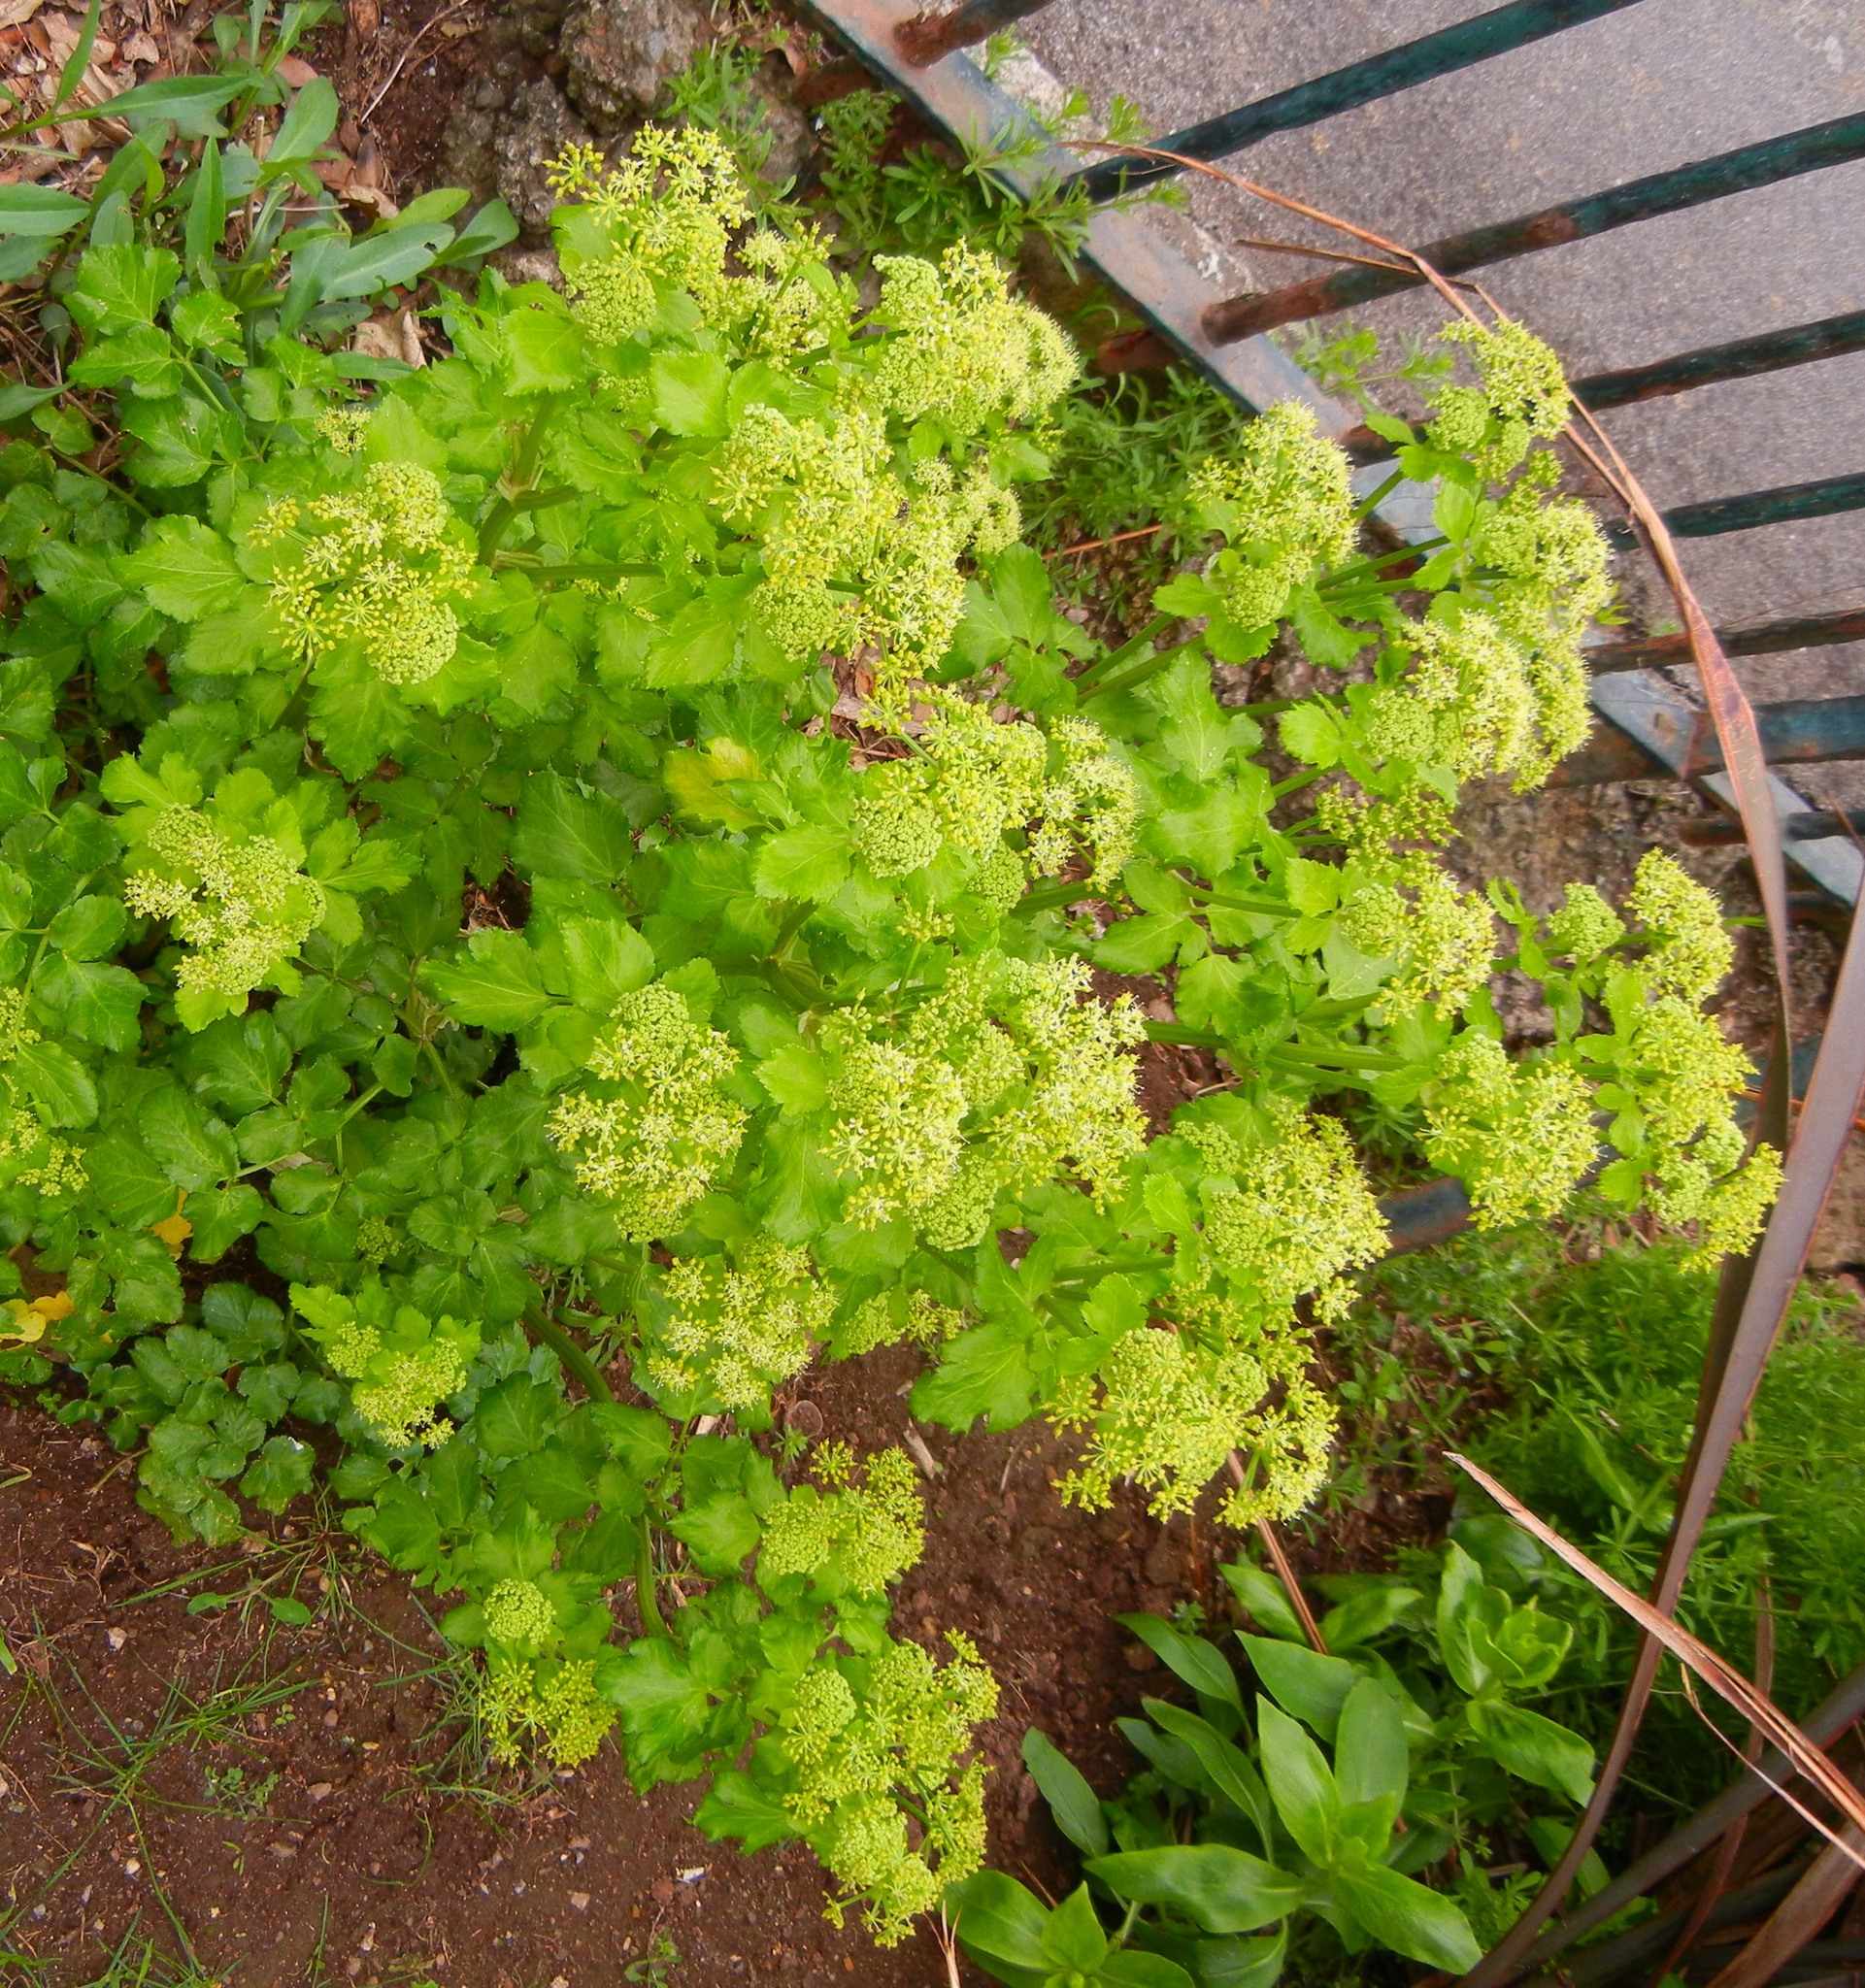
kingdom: Plantae
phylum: Tracheophyta
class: Magnoliopsida
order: Apiales
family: Apiaceae
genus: Smyrnium
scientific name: Smyrnium olusatrum
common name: Alexanders
